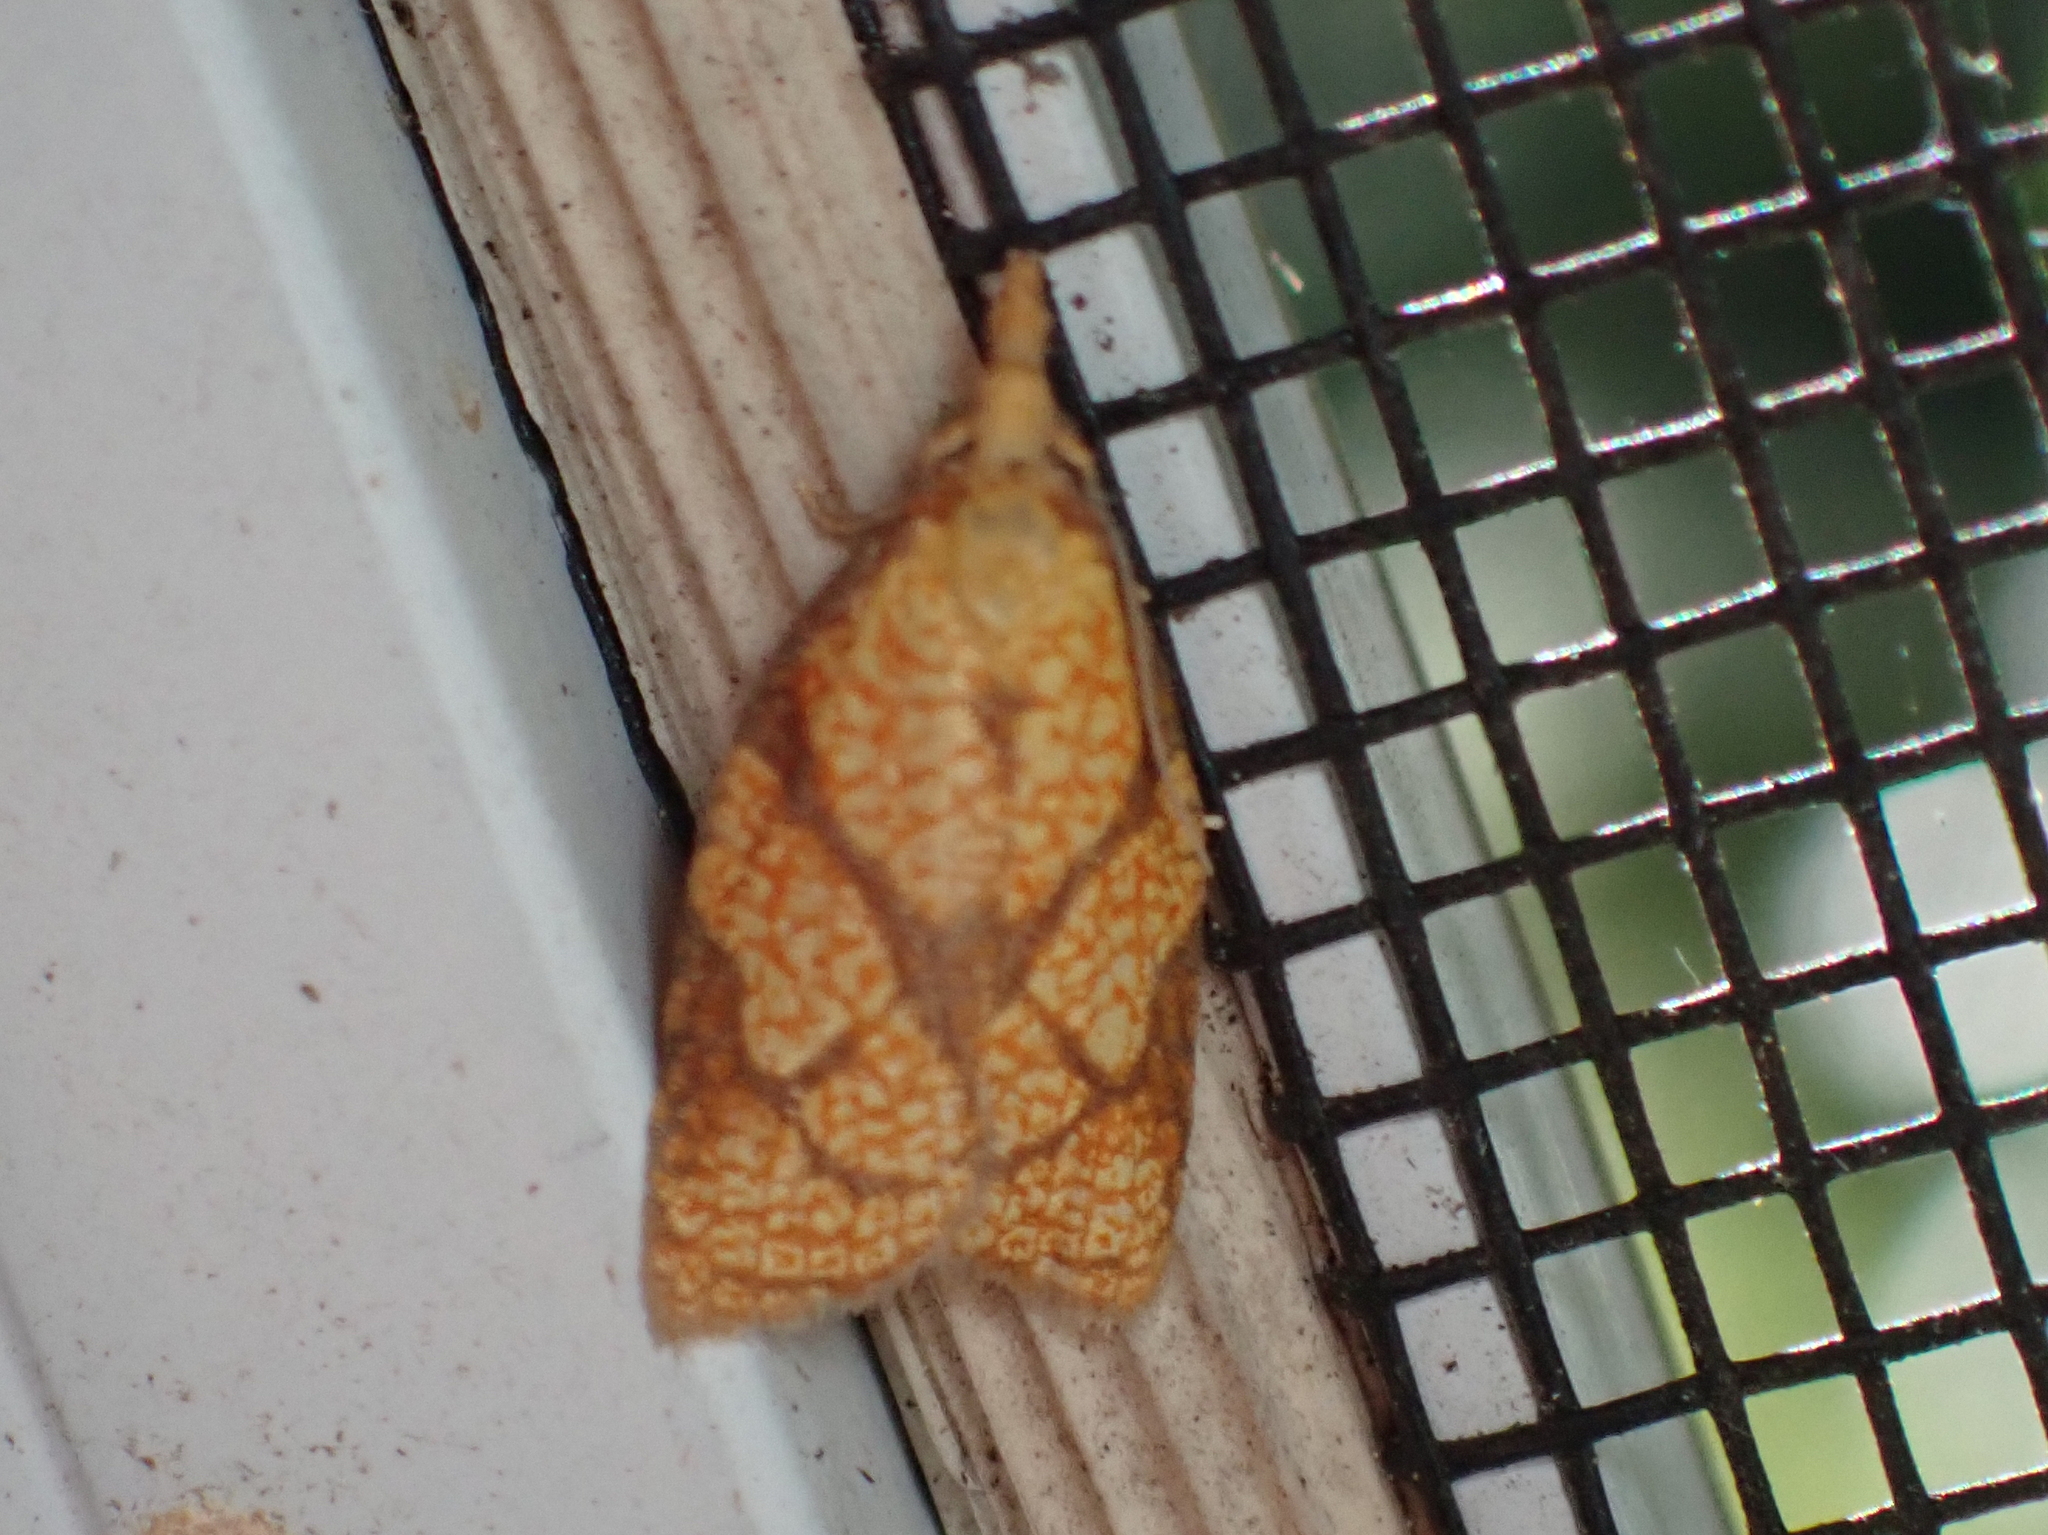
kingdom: Animalia
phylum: Arthropoda
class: Insecta
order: Lepidoptera
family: Tortricidae
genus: Cenopis
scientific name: Cenopis reticulatana
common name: Reticulated fruitworm moth
